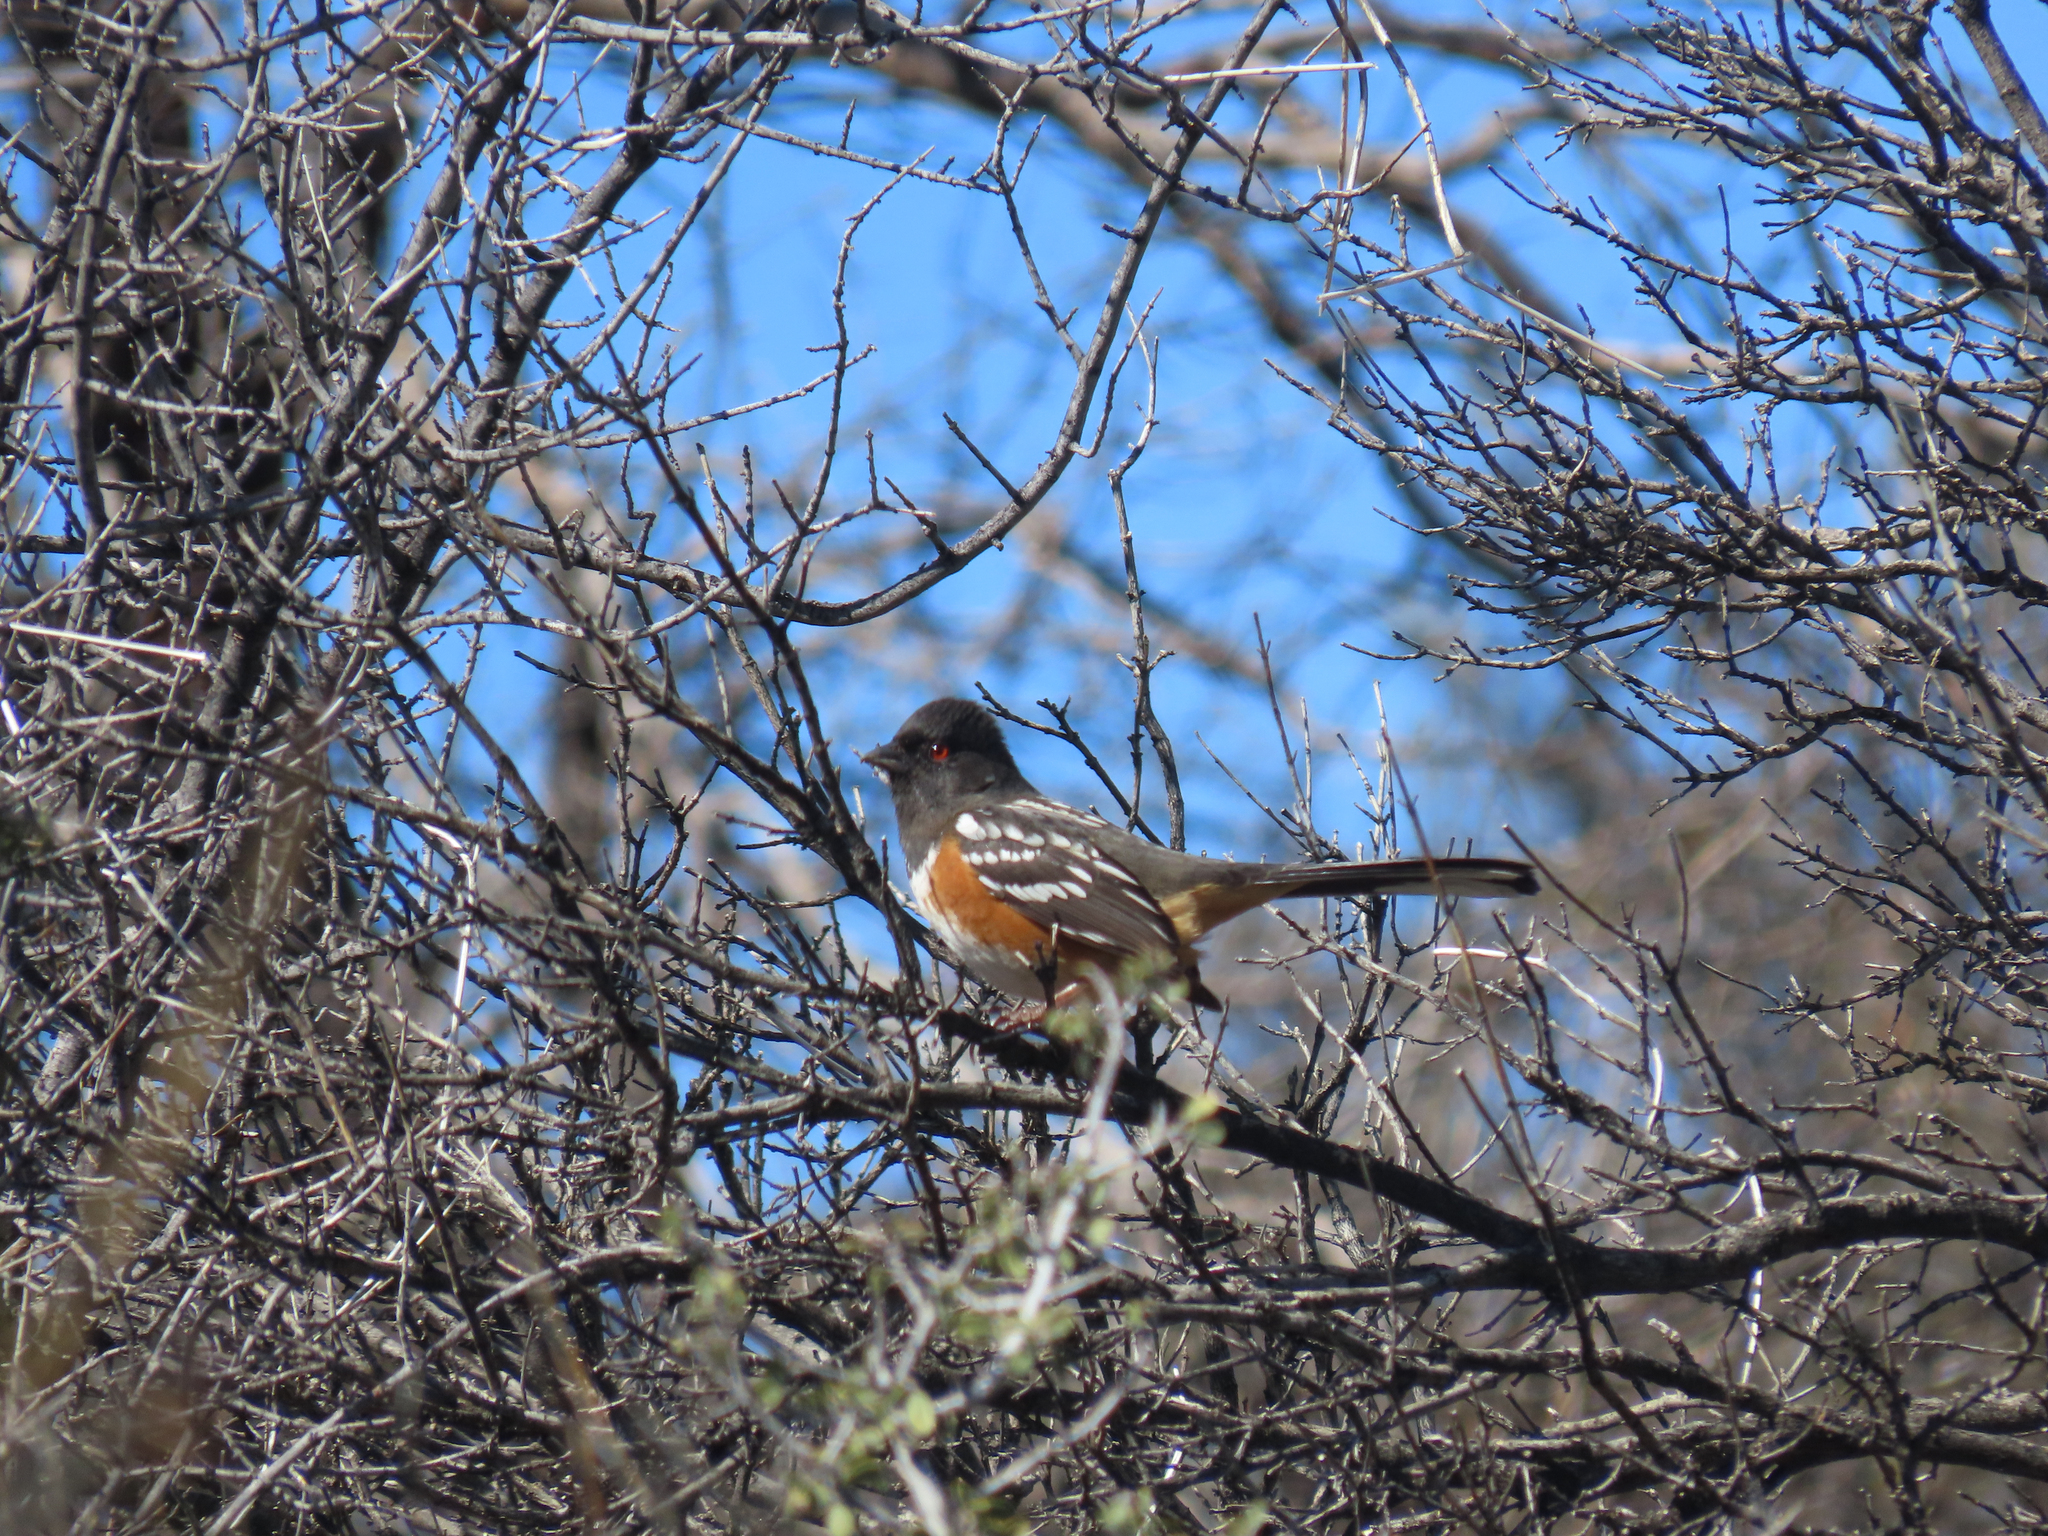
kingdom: Animalia
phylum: Chordata
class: Aves
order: Passeriformes
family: Passerellidae
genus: Pipilo
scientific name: Pipilo maculatus
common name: Spotted towhee
